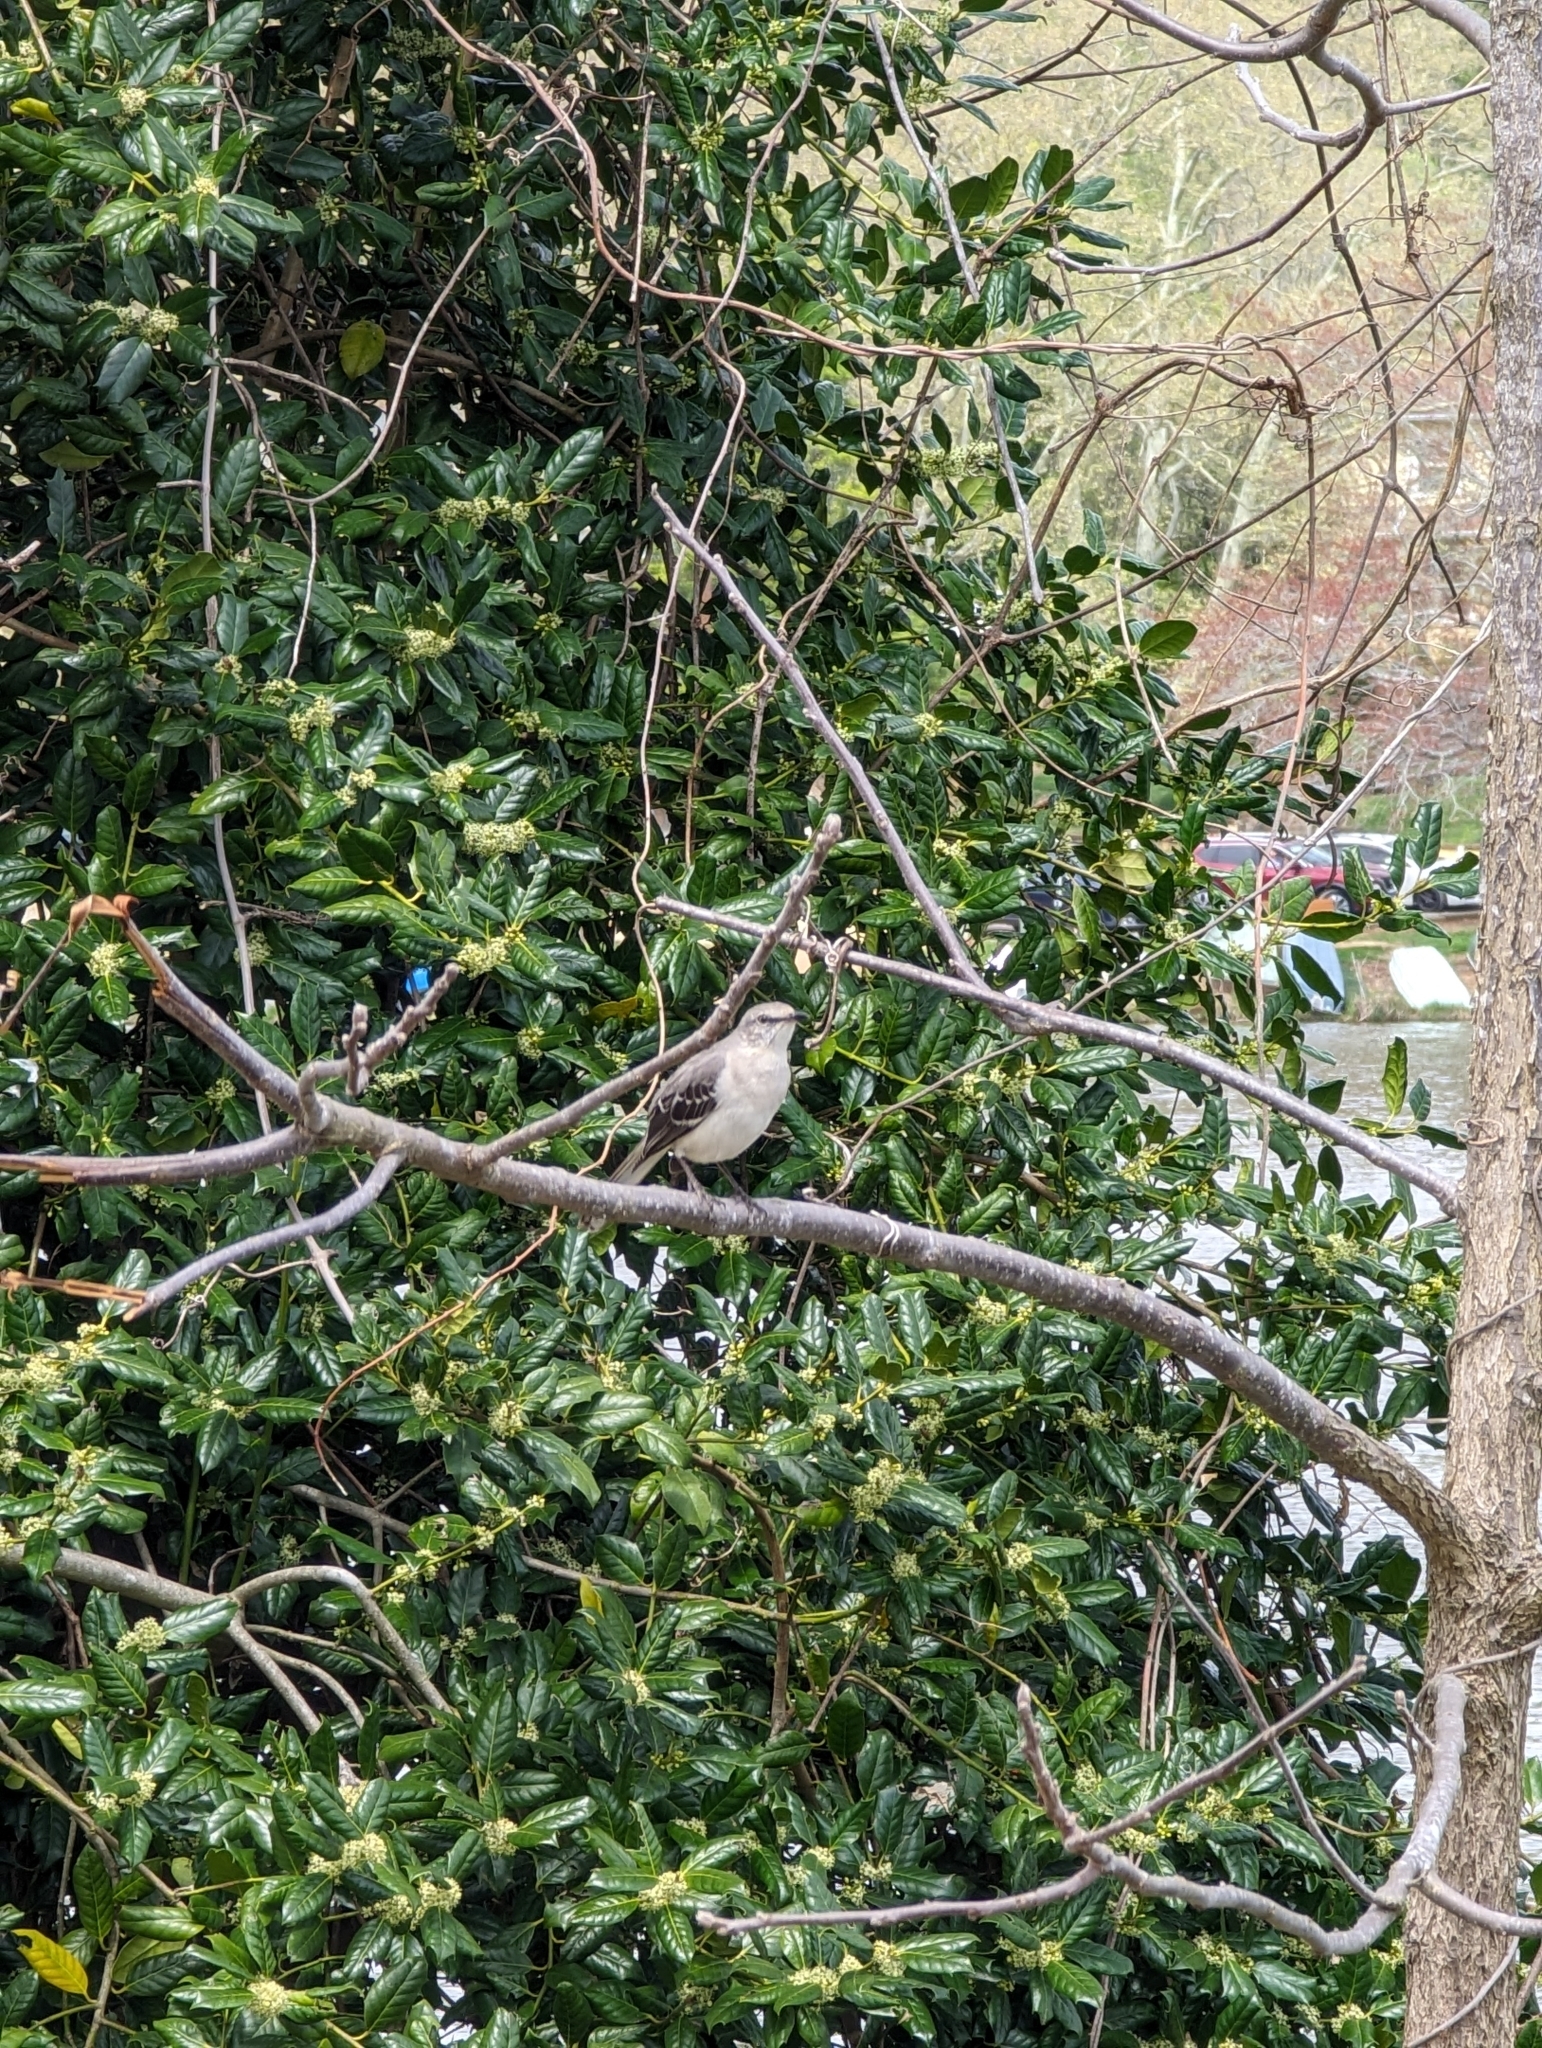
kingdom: Animalia
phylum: Chordata
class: Aves
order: Passeriformes
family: Mimidae
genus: Mimus
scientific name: Mimus polyglottos
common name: Northern mockingbird
